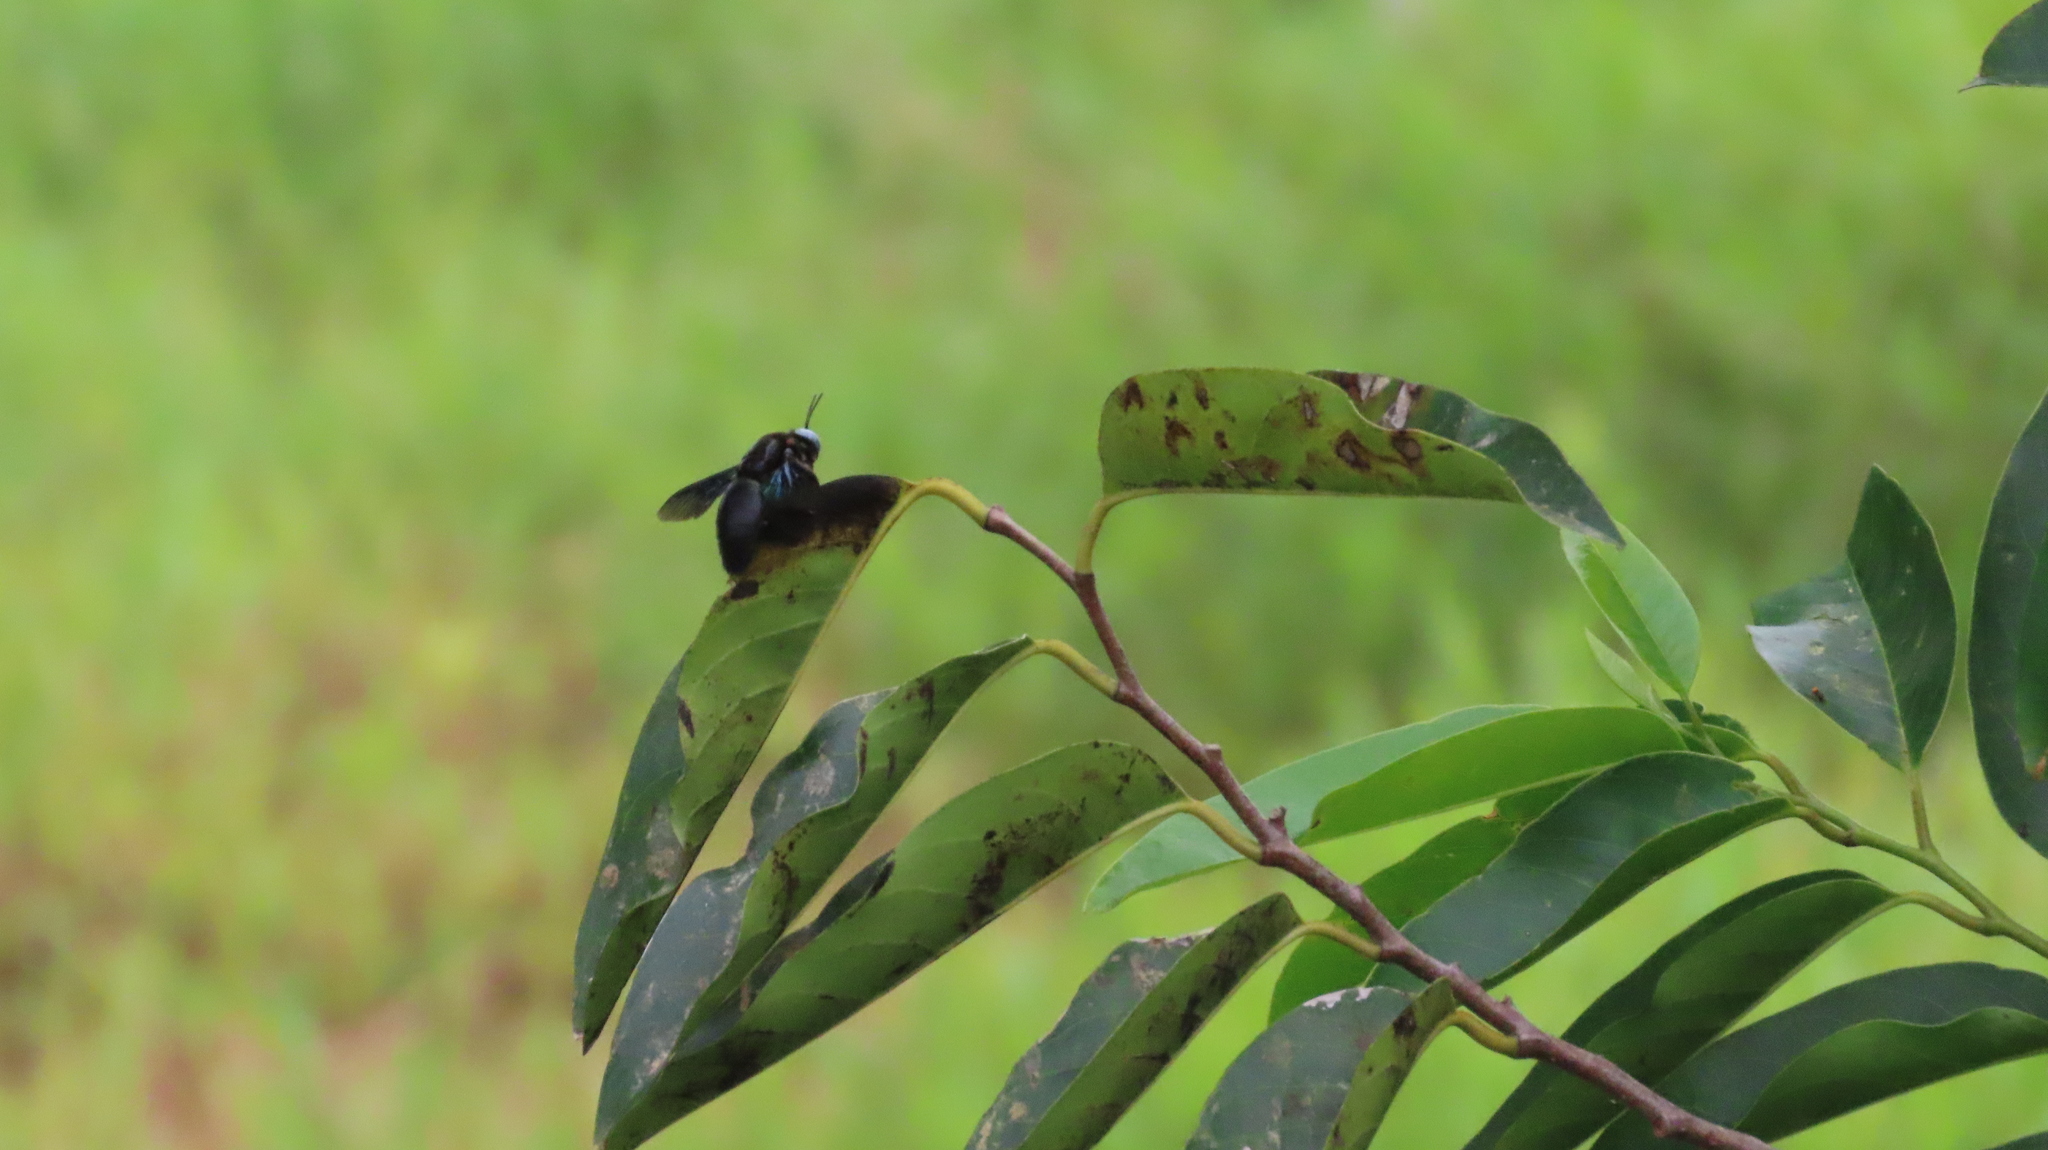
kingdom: Animalia
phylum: Arthropoda
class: Insecta
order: Hymenoptera
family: Apidae
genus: Xylocopa
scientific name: Xylocopa tenuiscapa
